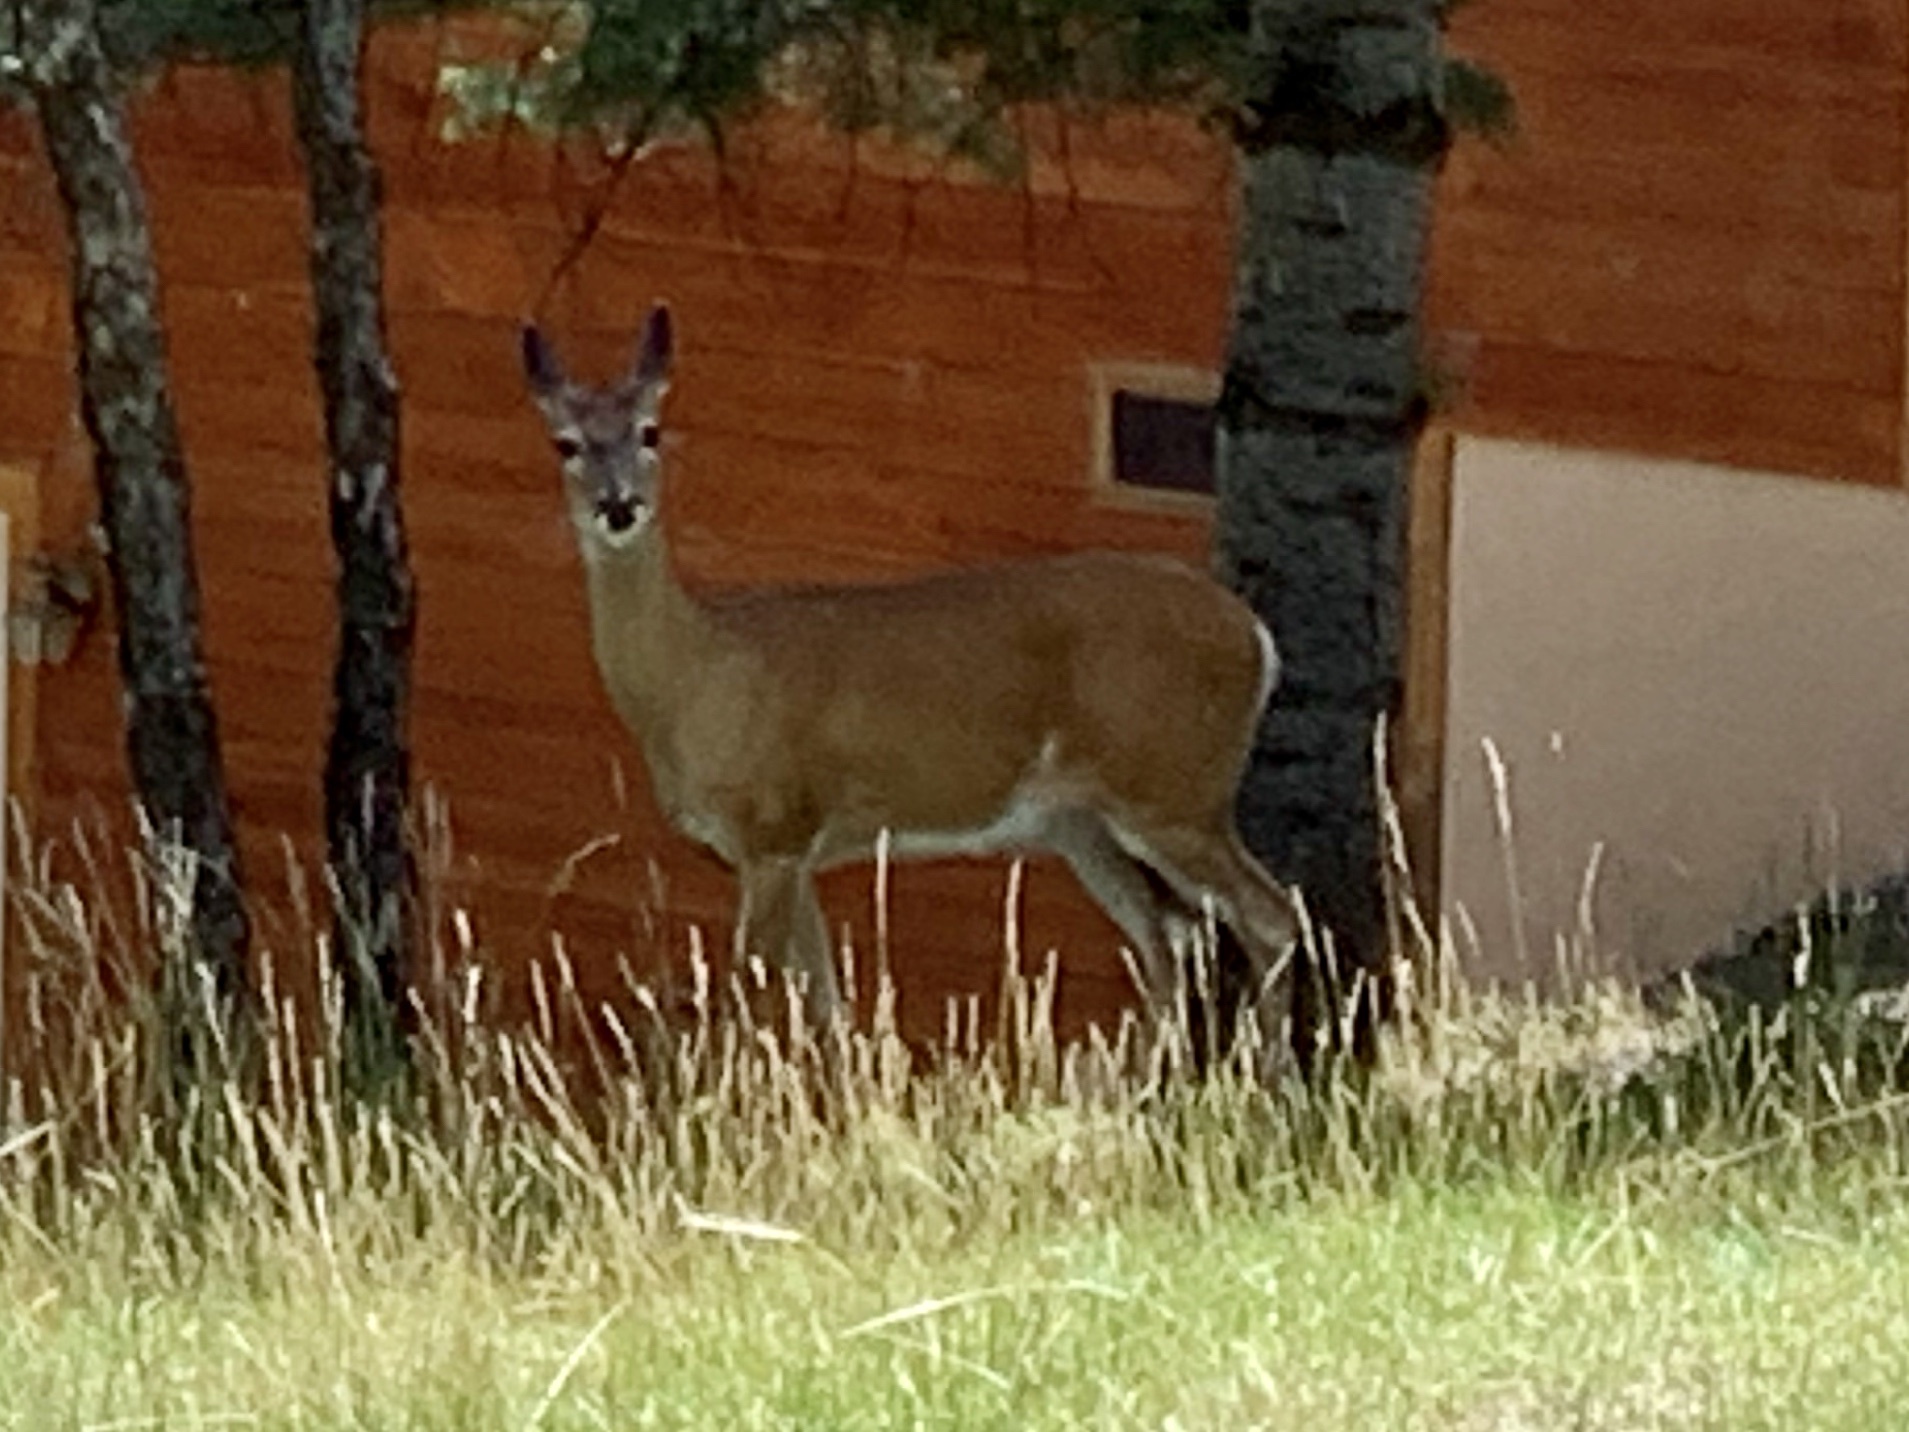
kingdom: Animalia
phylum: Chordata
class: Mammalia
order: Artiodactyla
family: Cervidae
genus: Odocoileus
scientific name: Odocoileus virginianus
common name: White-tailed deer
